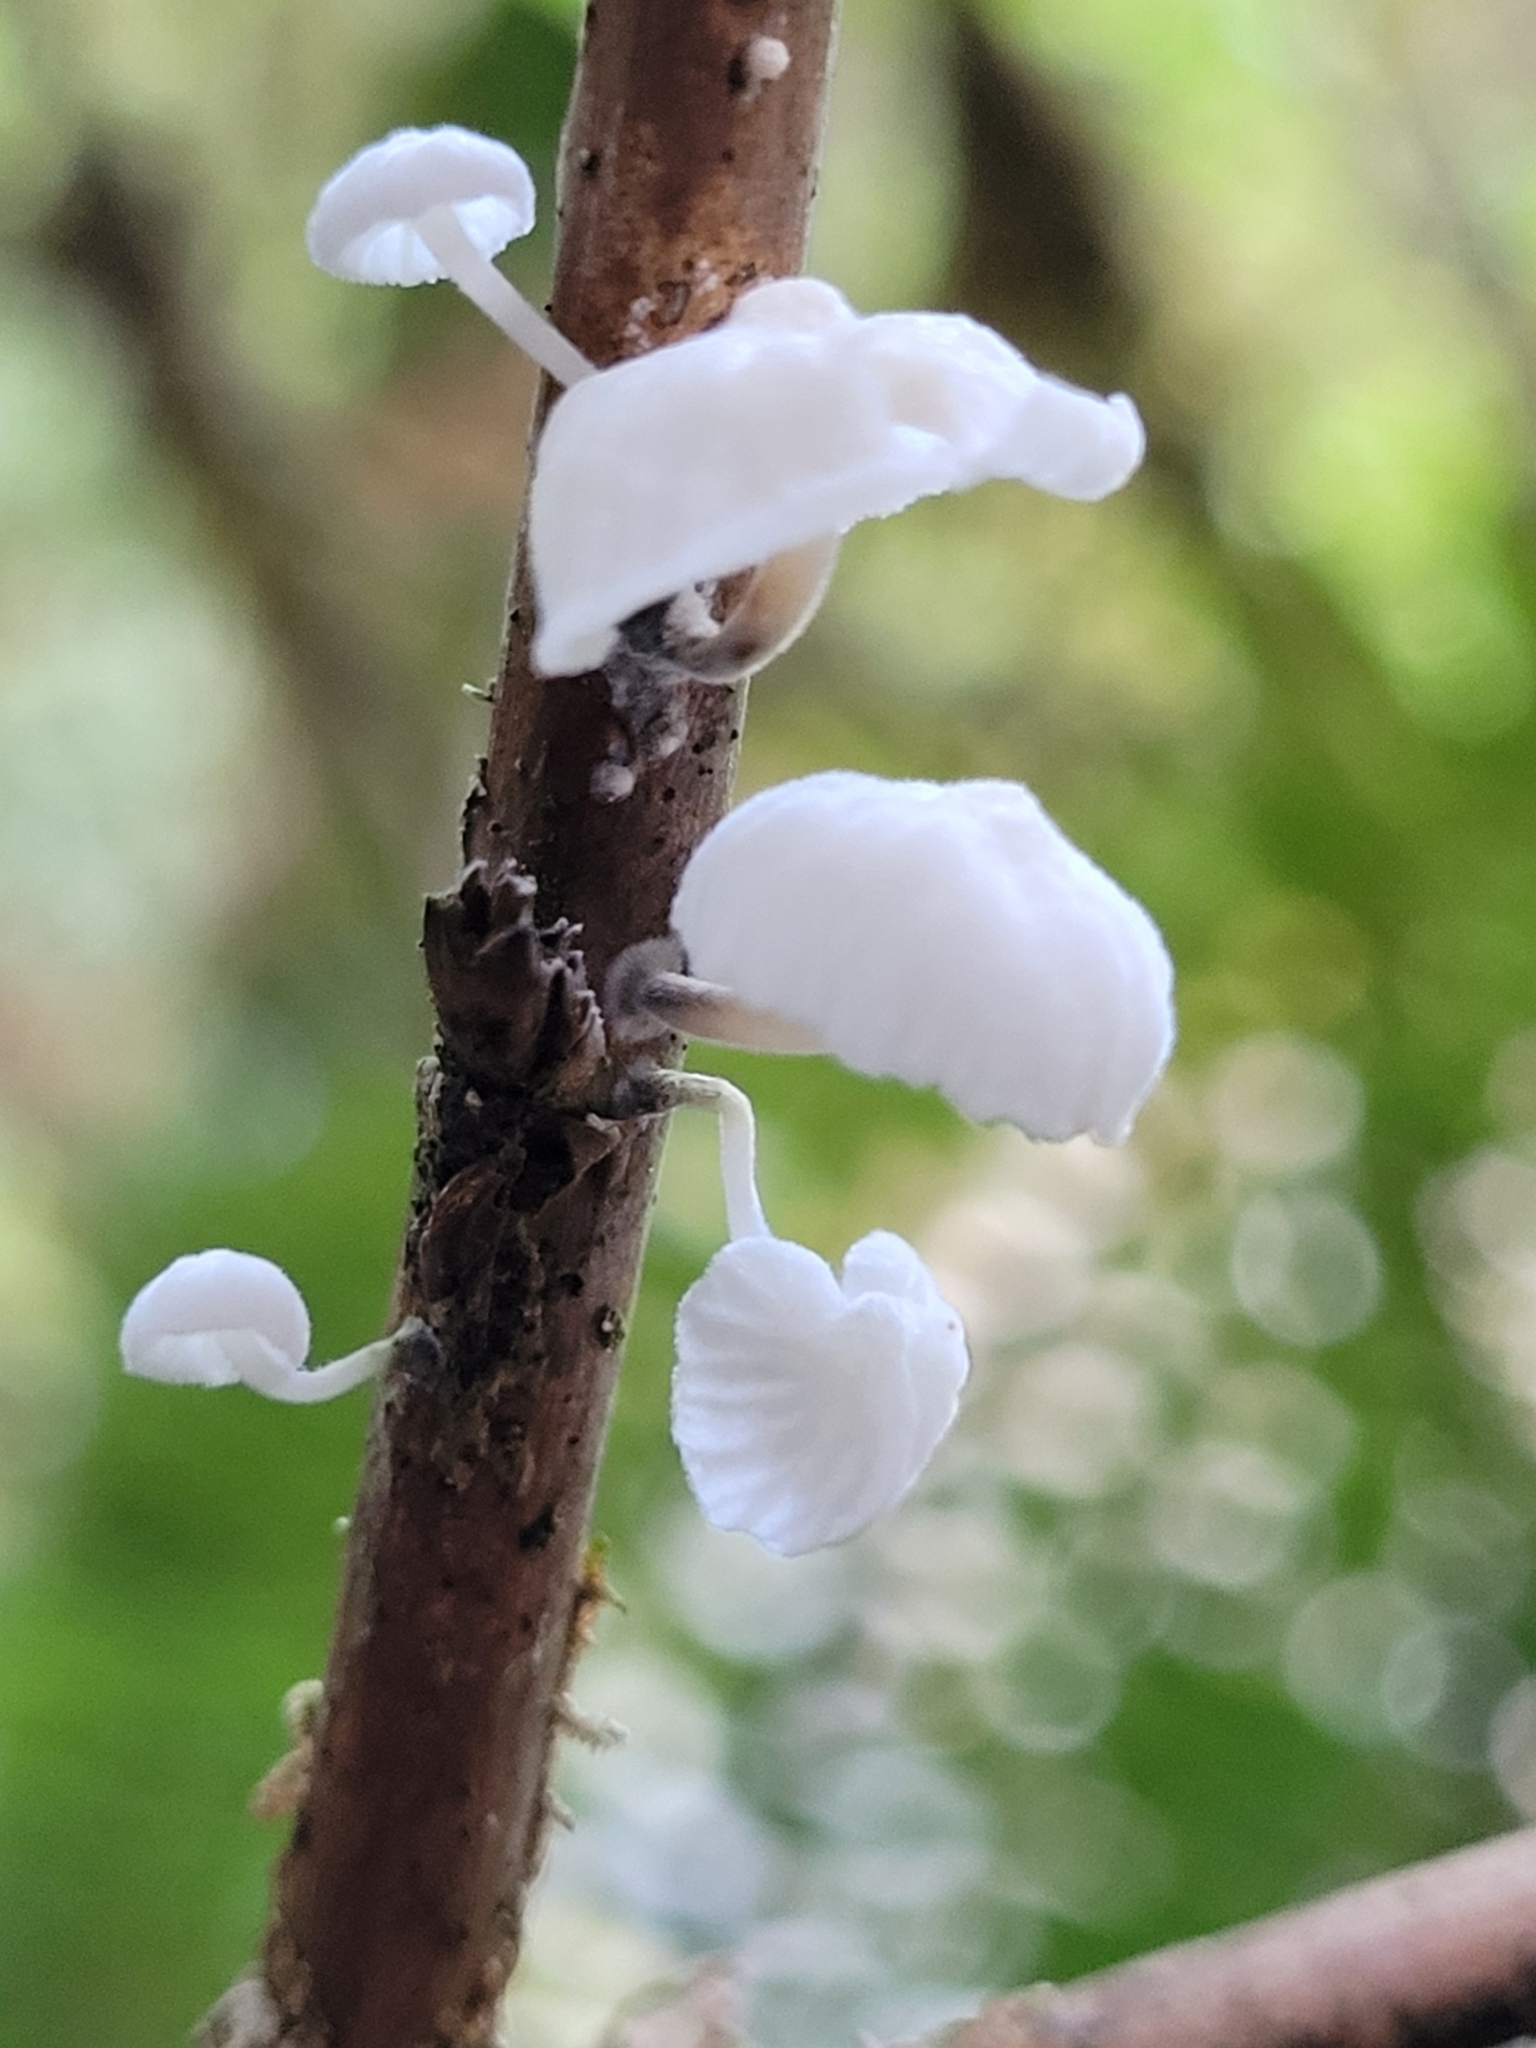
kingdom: Fungi
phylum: Basidiomycota
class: Agaricomycetes
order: Agaricales
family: Omphalotaceae
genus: Marasmiellus
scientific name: Marasmiellus candidus
